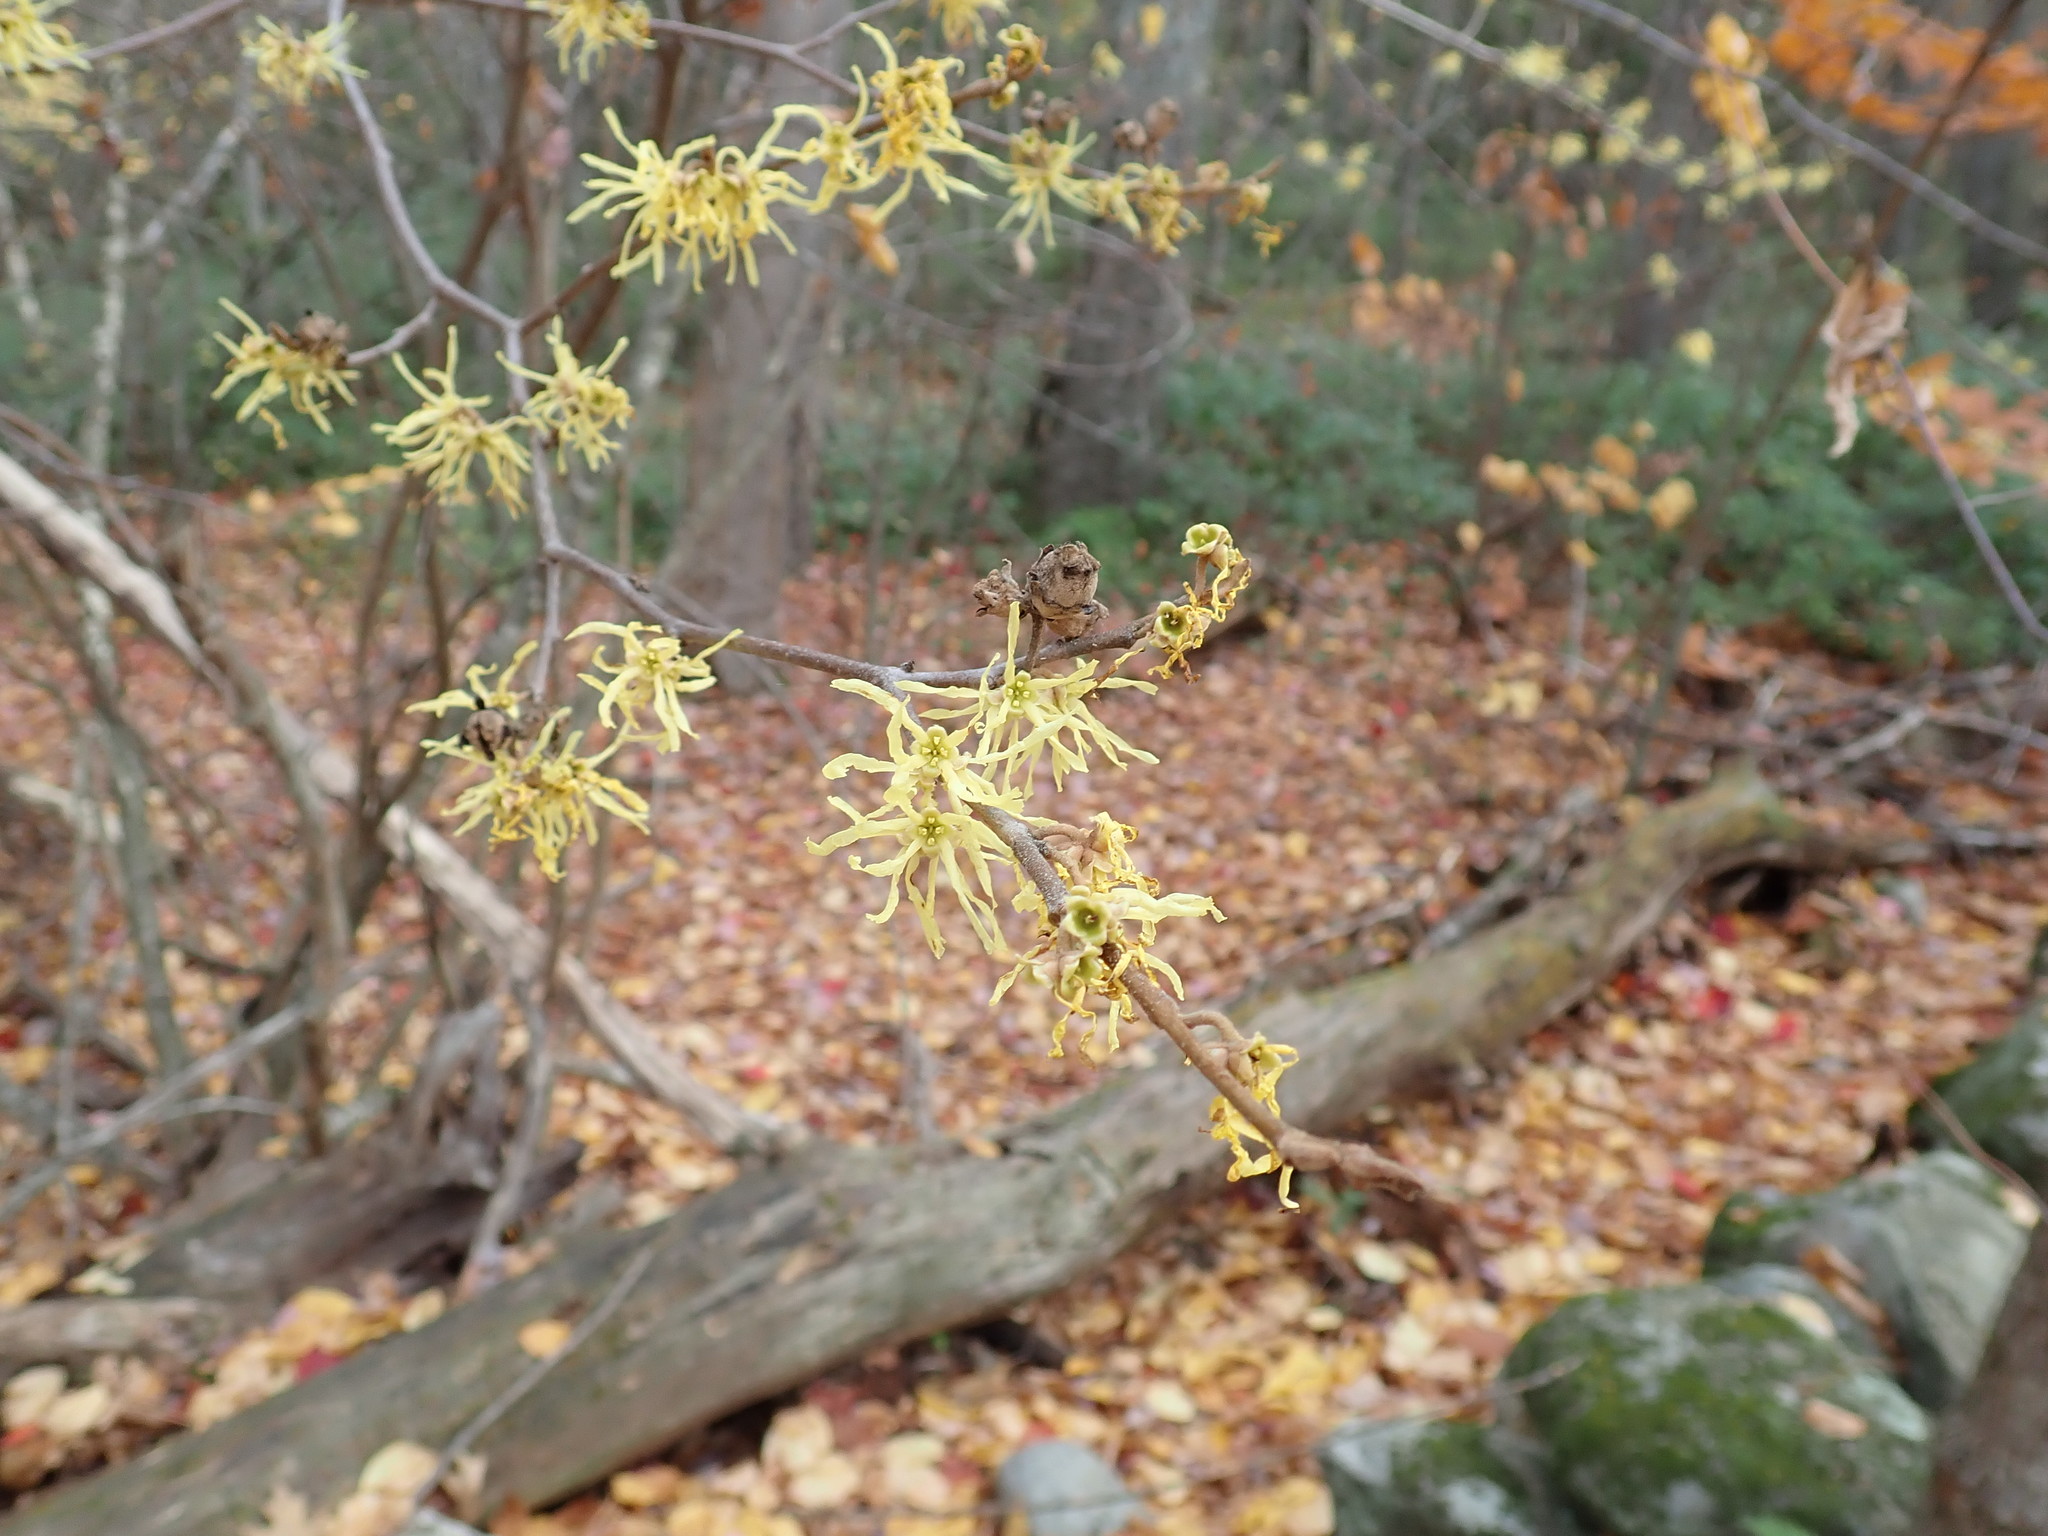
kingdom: Plantae
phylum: Tracheophyta
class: Magnoliopsida
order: Saxifragales
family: Hamamelidaceae
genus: Hamamelis
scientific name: Hamamelis virginiana
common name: Witch-hazel
